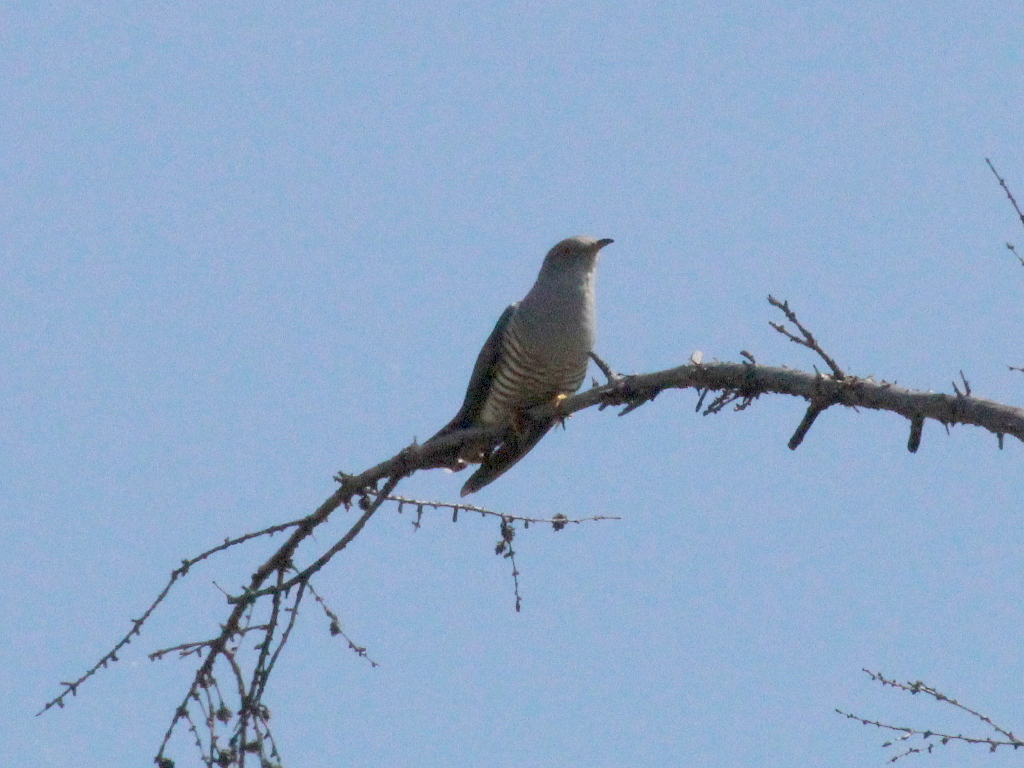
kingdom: Animalia
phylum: Chordata
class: Aves
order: Cuculiformes
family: Cuculidae
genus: Cuculus
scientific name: Cuculus optatus
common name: Oriental cuckoo
